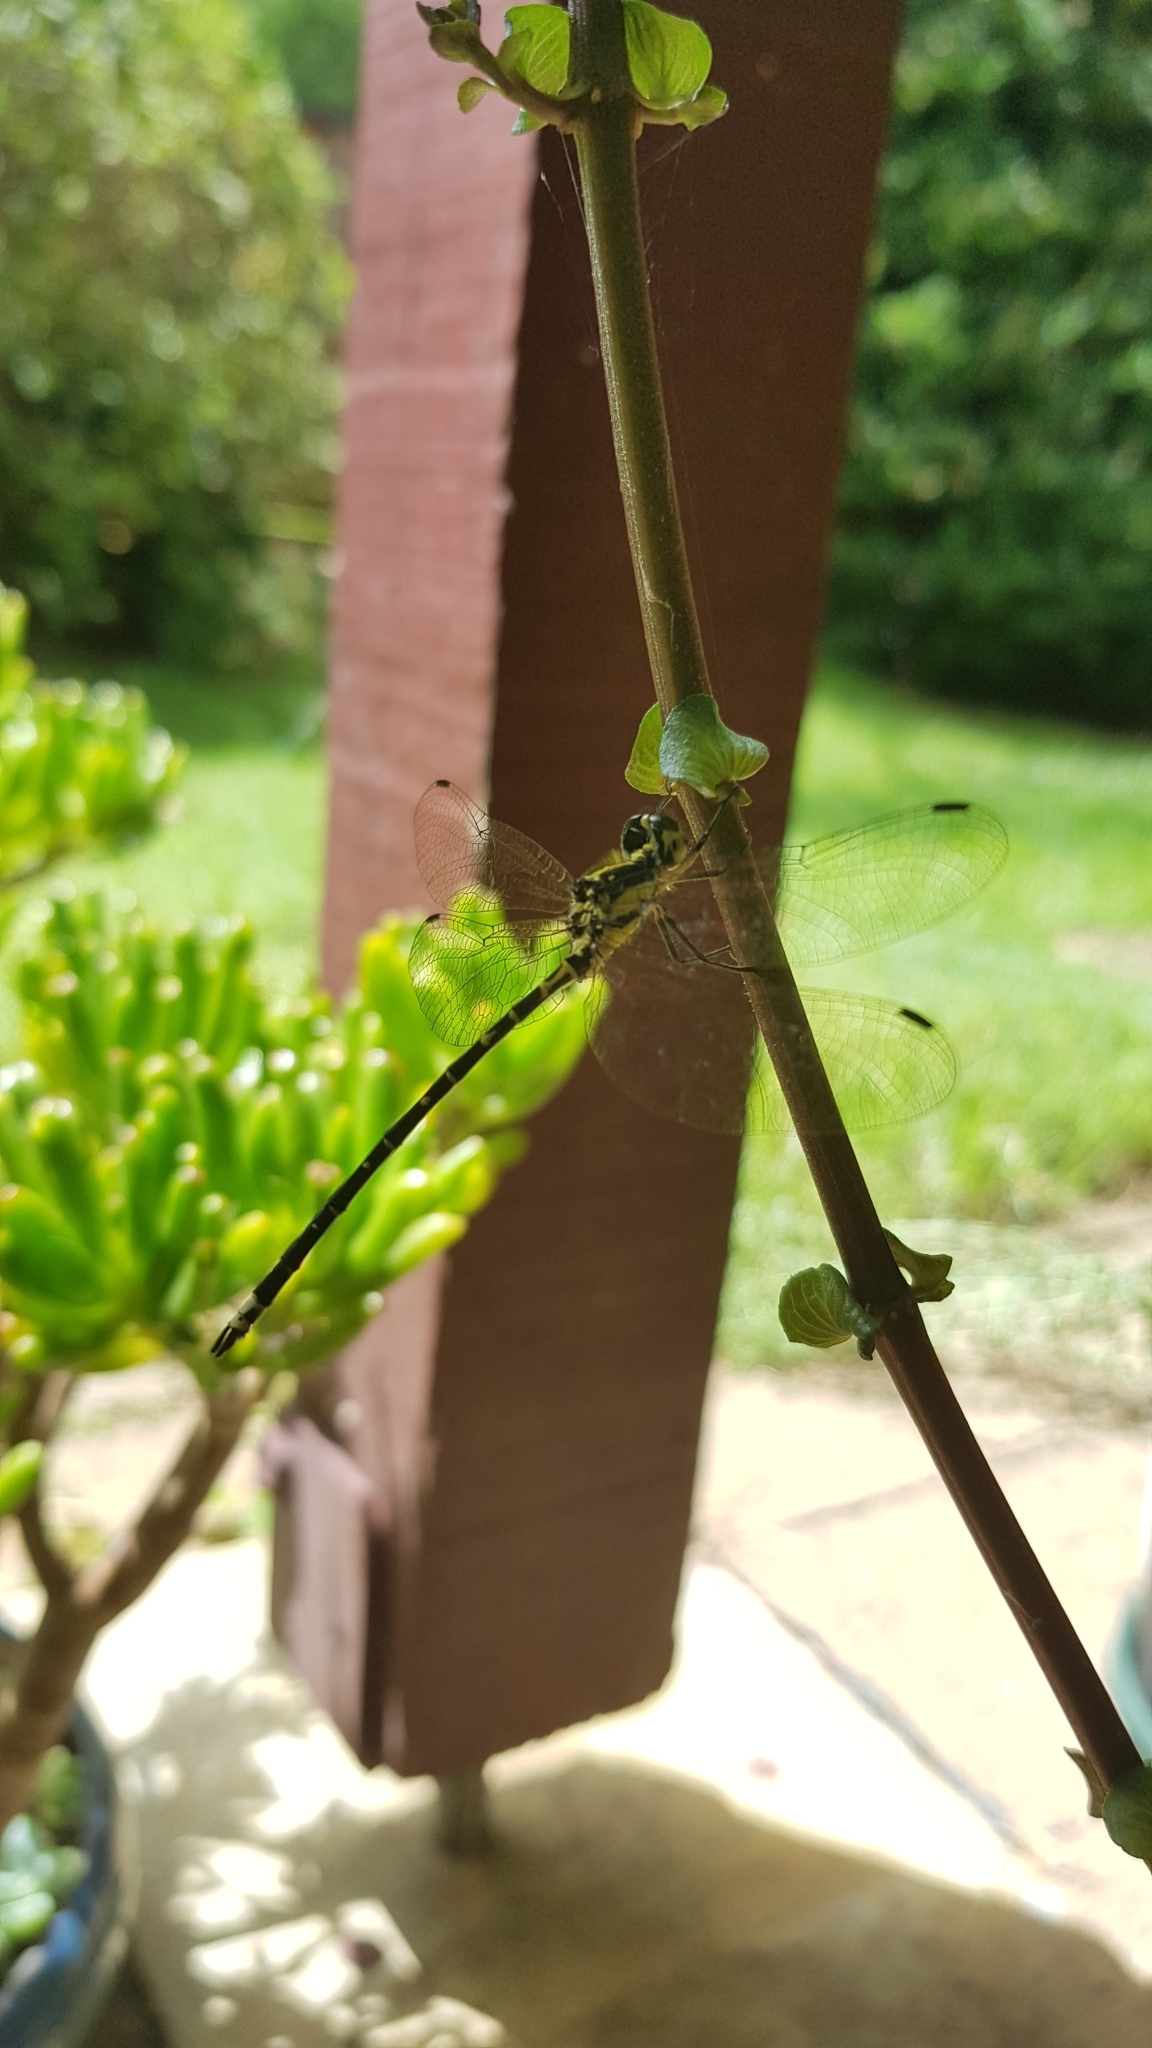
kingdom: Animalia
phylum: Arthropoda
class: Insecta
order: Odonata
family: Synthemistidae
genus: Choristhemis
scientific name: Choristhemis flavoterminata
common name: Yellow-tipped tigertail
